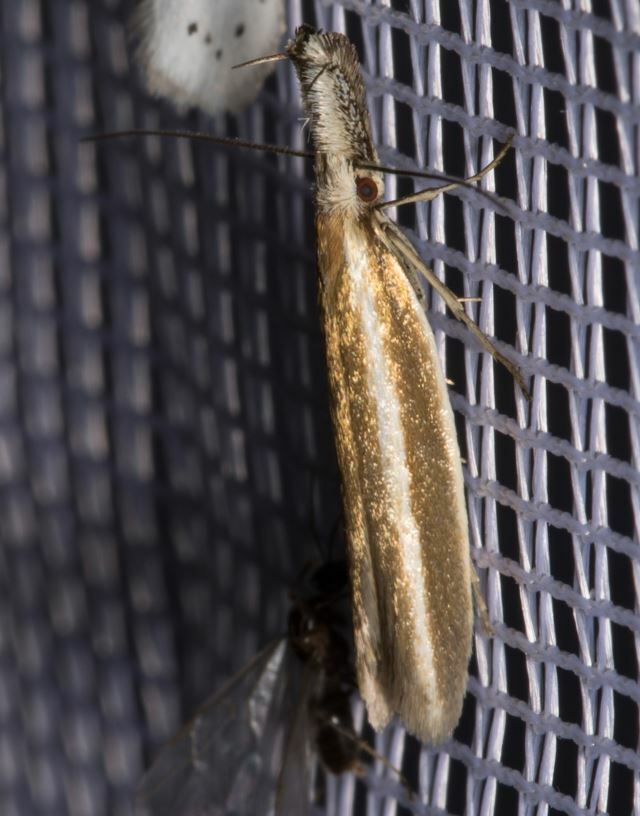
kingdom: Animalia
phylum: Arthropoda
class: Insecta
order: Lepidoptera
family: Oecophoridae
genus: Pleurota
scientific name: Pleurota aristella
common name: Southern streak
